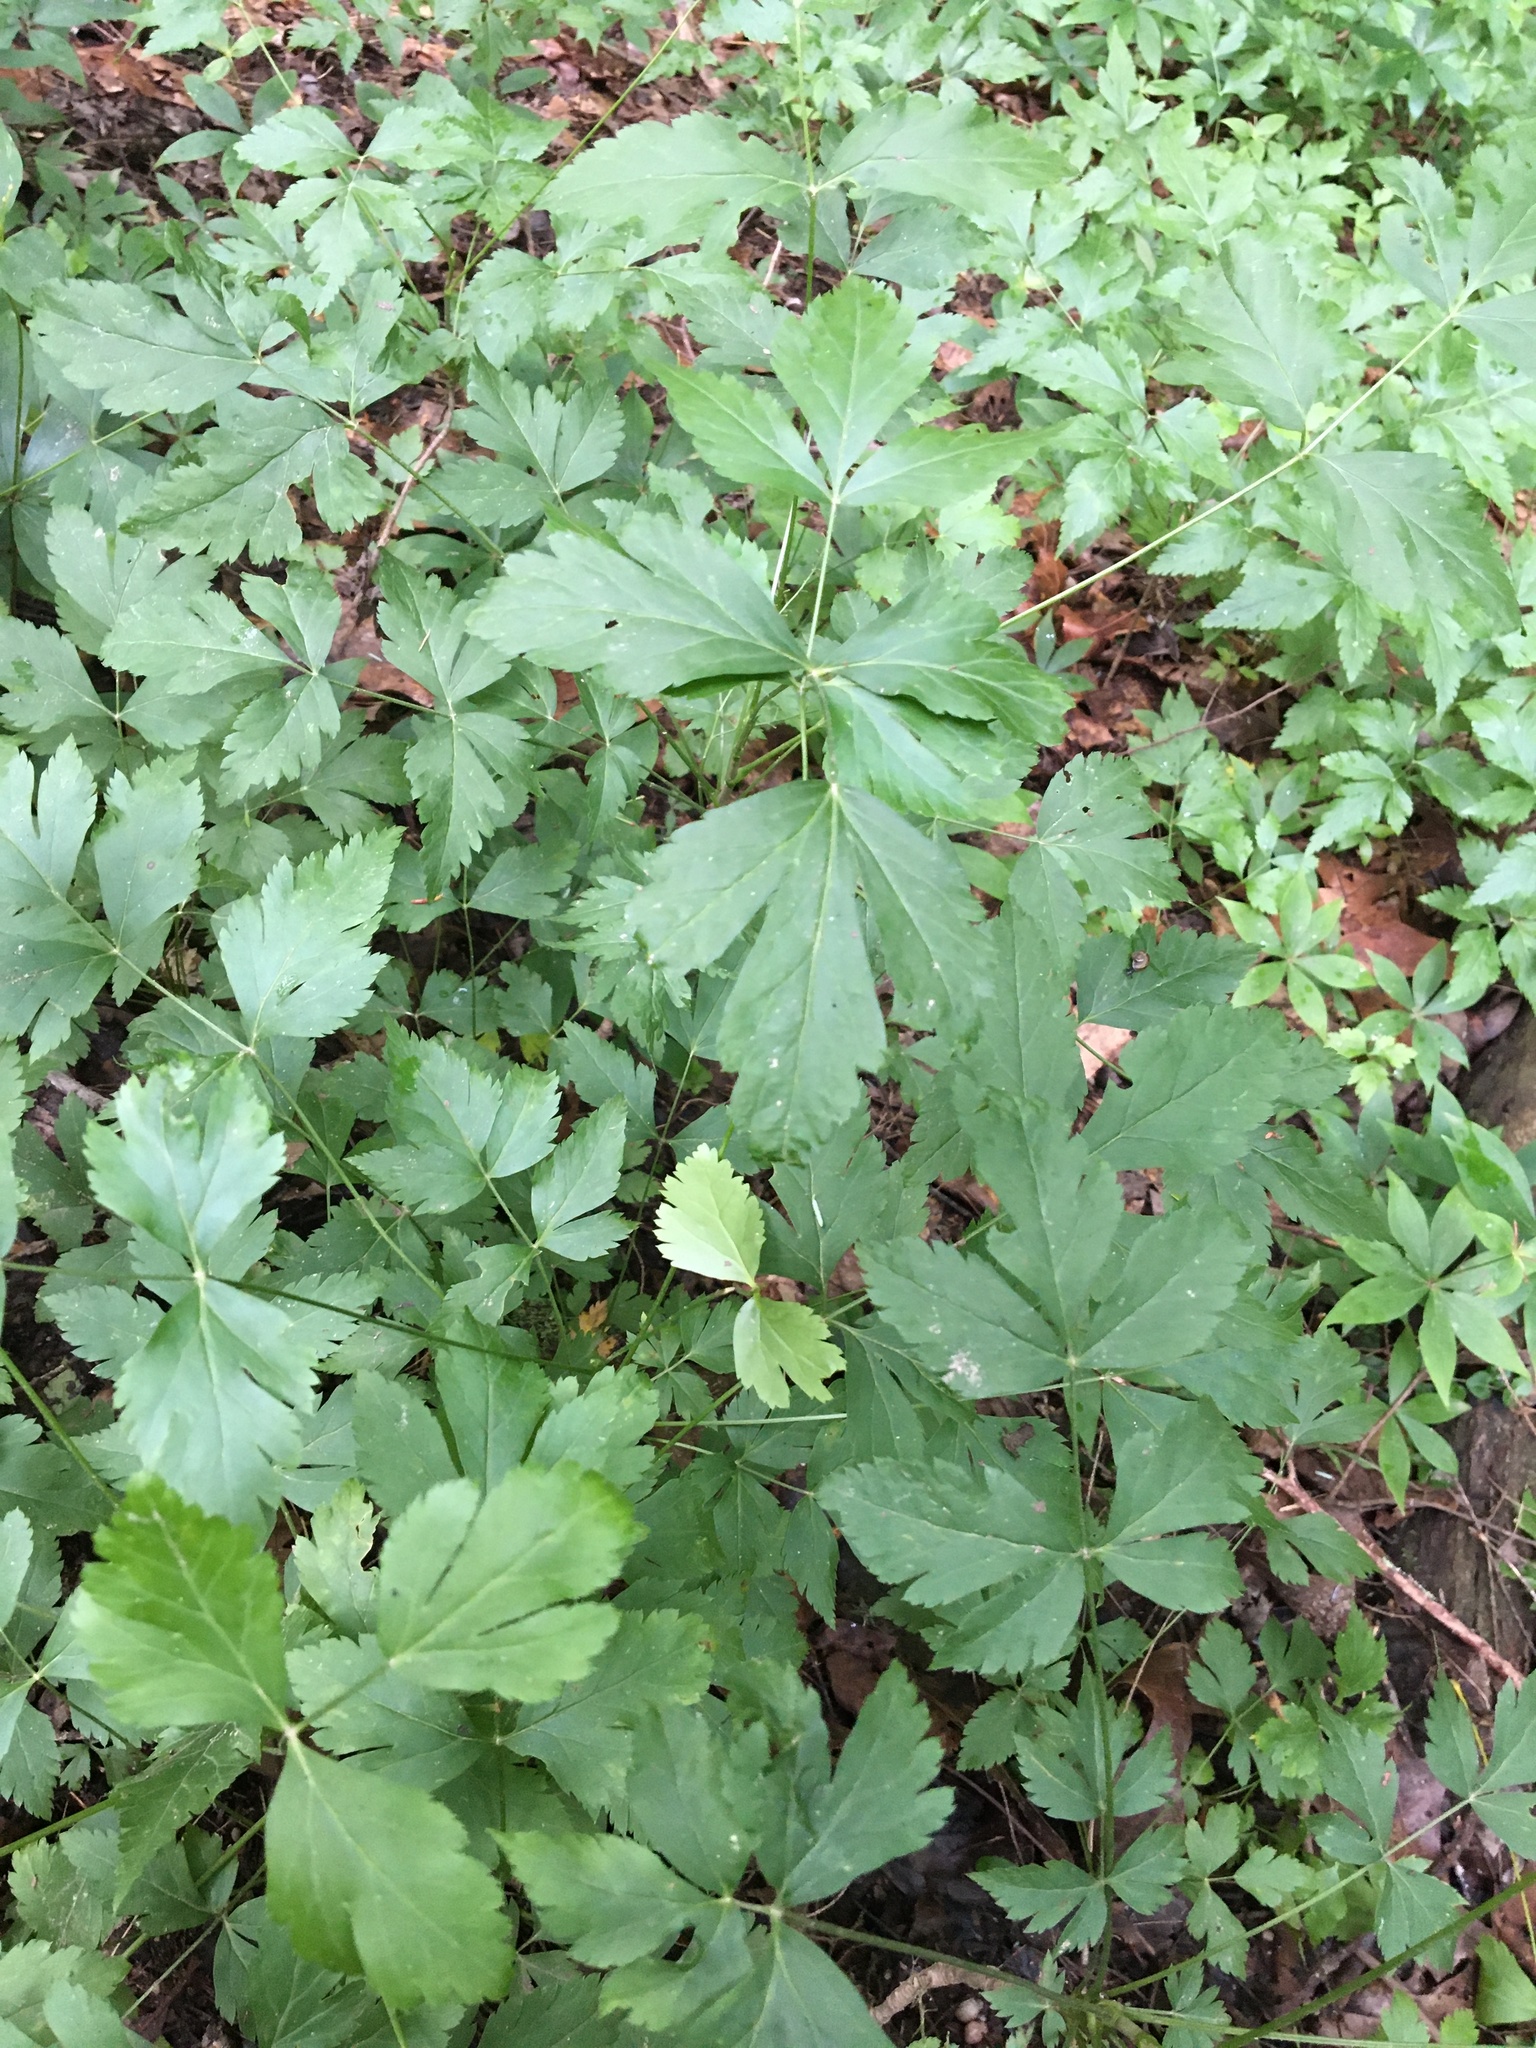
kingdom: Plantae
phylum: Tracheophyta
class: Magnoliopsida
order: Ranunculales
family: Ranunculaceae
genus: Xanthorhiza
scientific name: Xanthorhiza simplicissima
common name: Yellowroot
